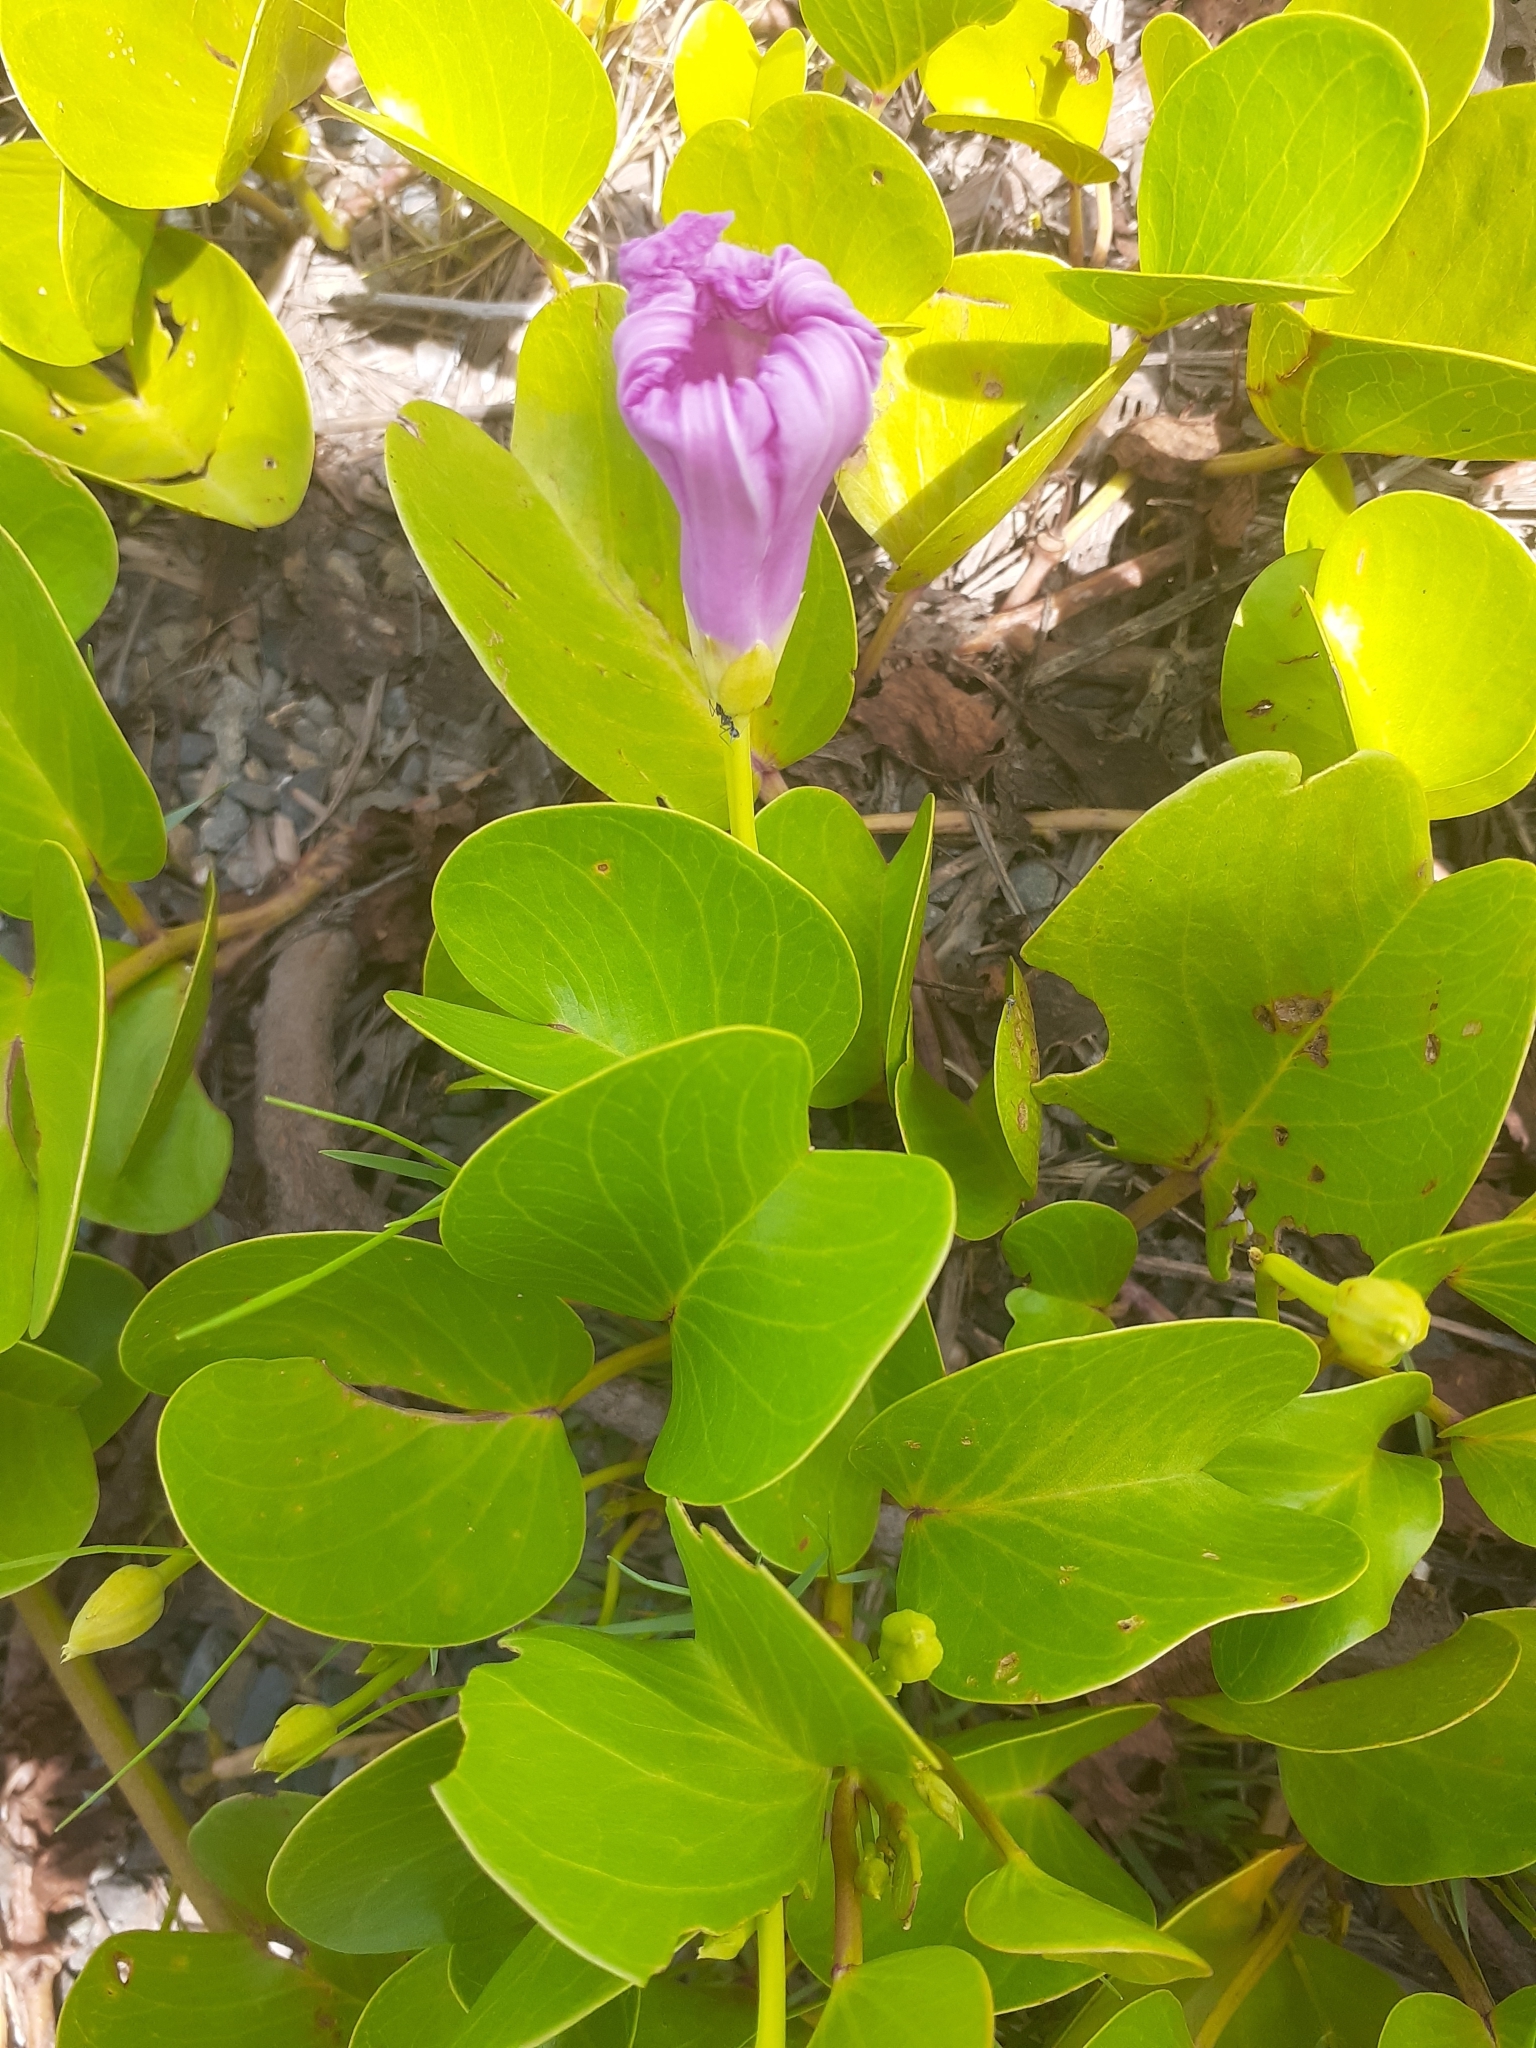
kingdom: Plantae
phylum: Tracheophyta
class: Magnoliopsida
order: Solanales
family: Convolvulaceae
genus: Ipomoea
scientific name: Ipomoea pes-caprae
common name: Beach morning glory
